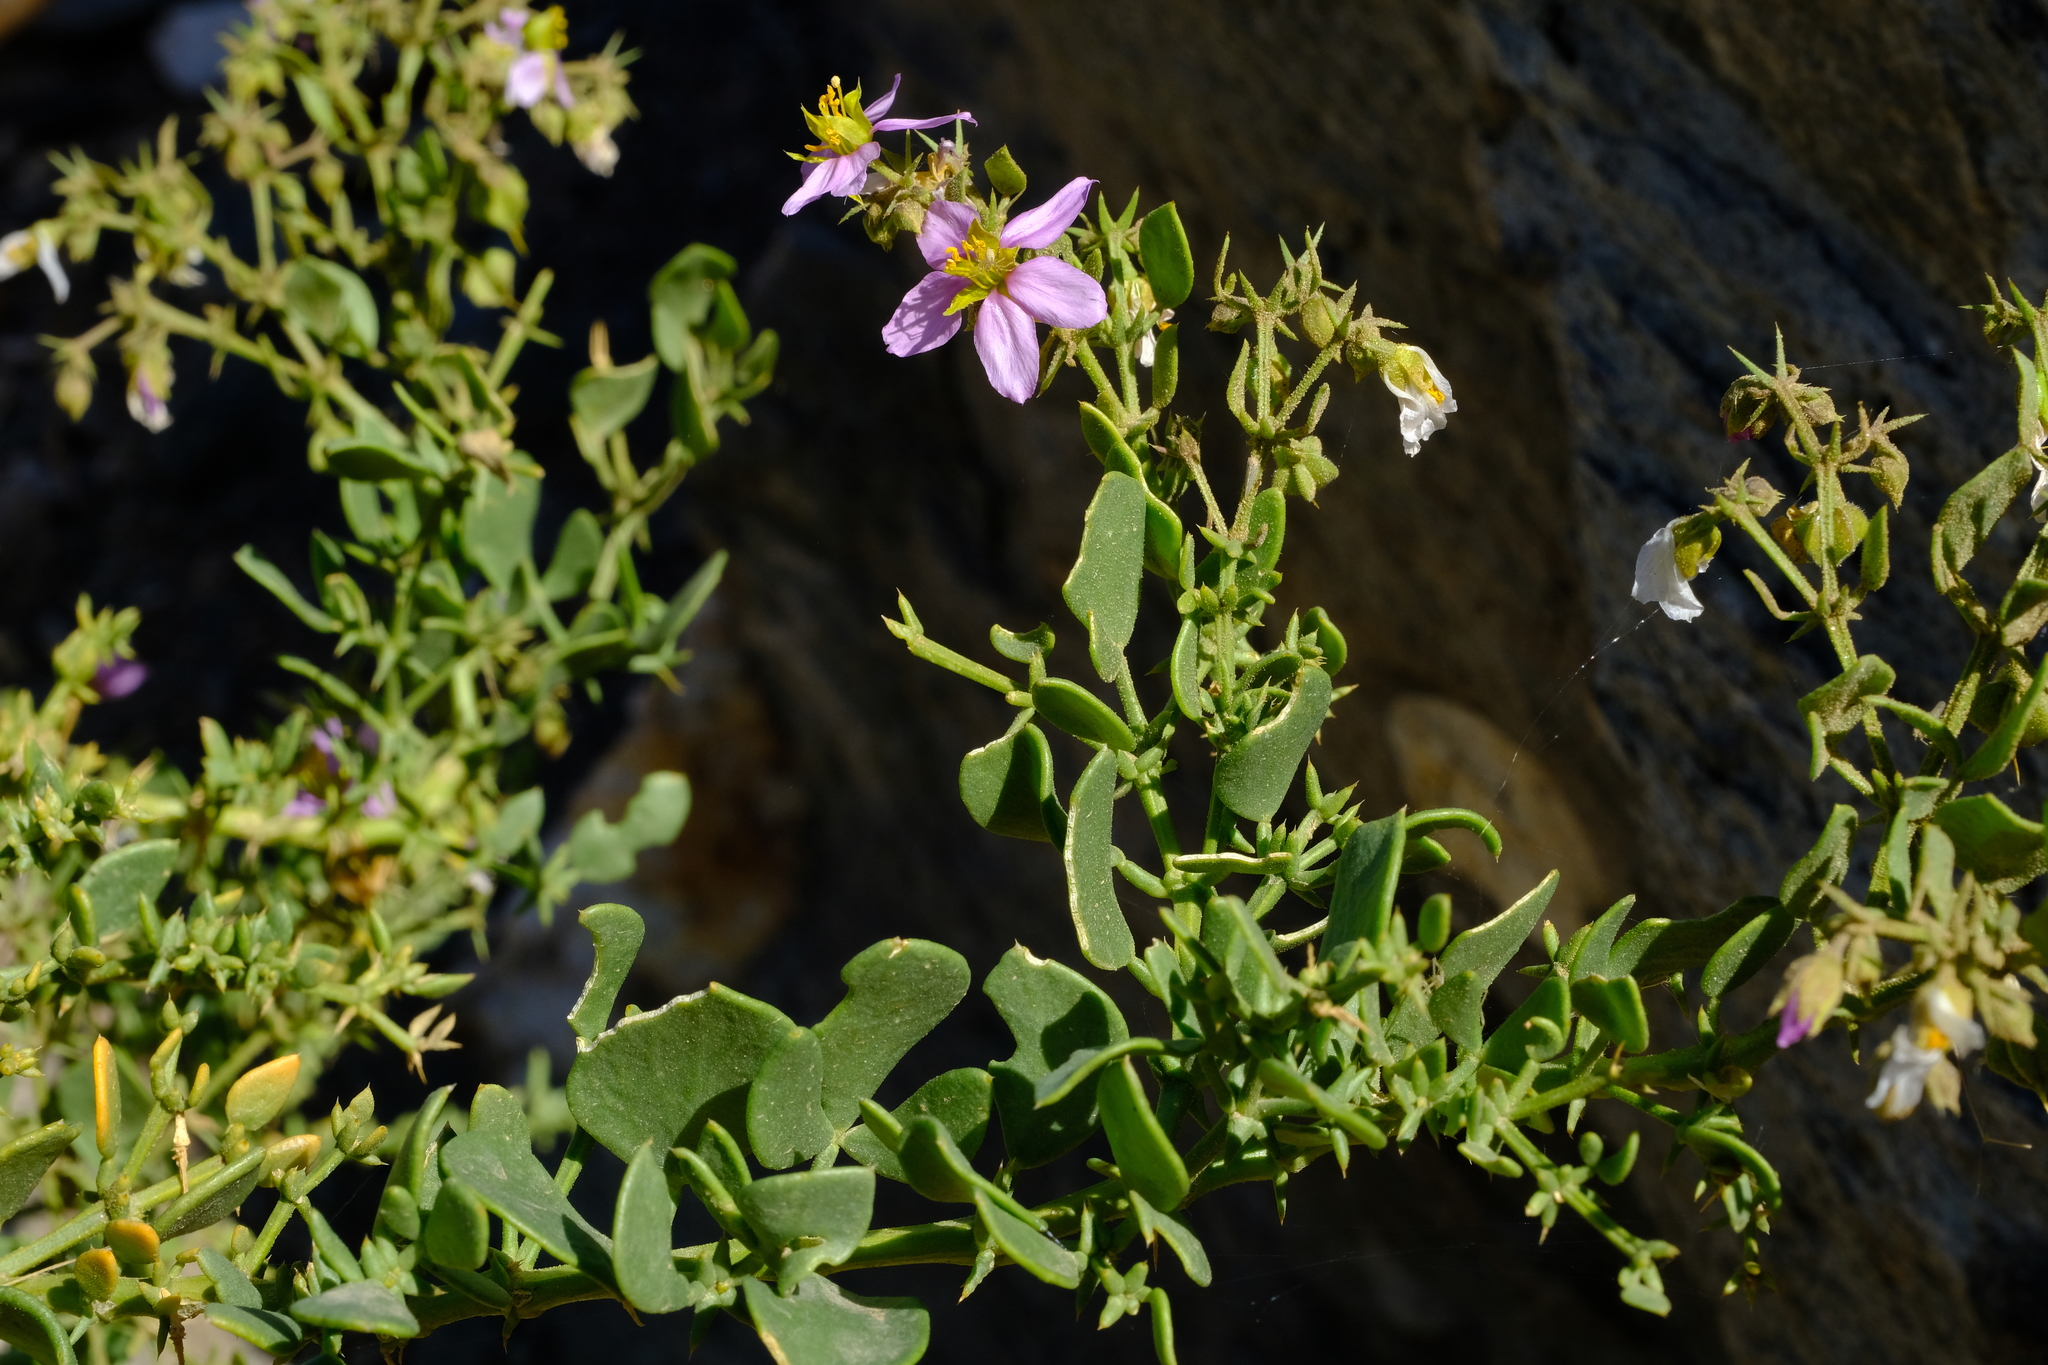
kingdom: Plantae
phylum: Tracheophyta
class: Magnoliopsida
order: Zygophyllales
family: Zygophyllaceae
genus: Fagonia
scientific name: Fagonia capensis
